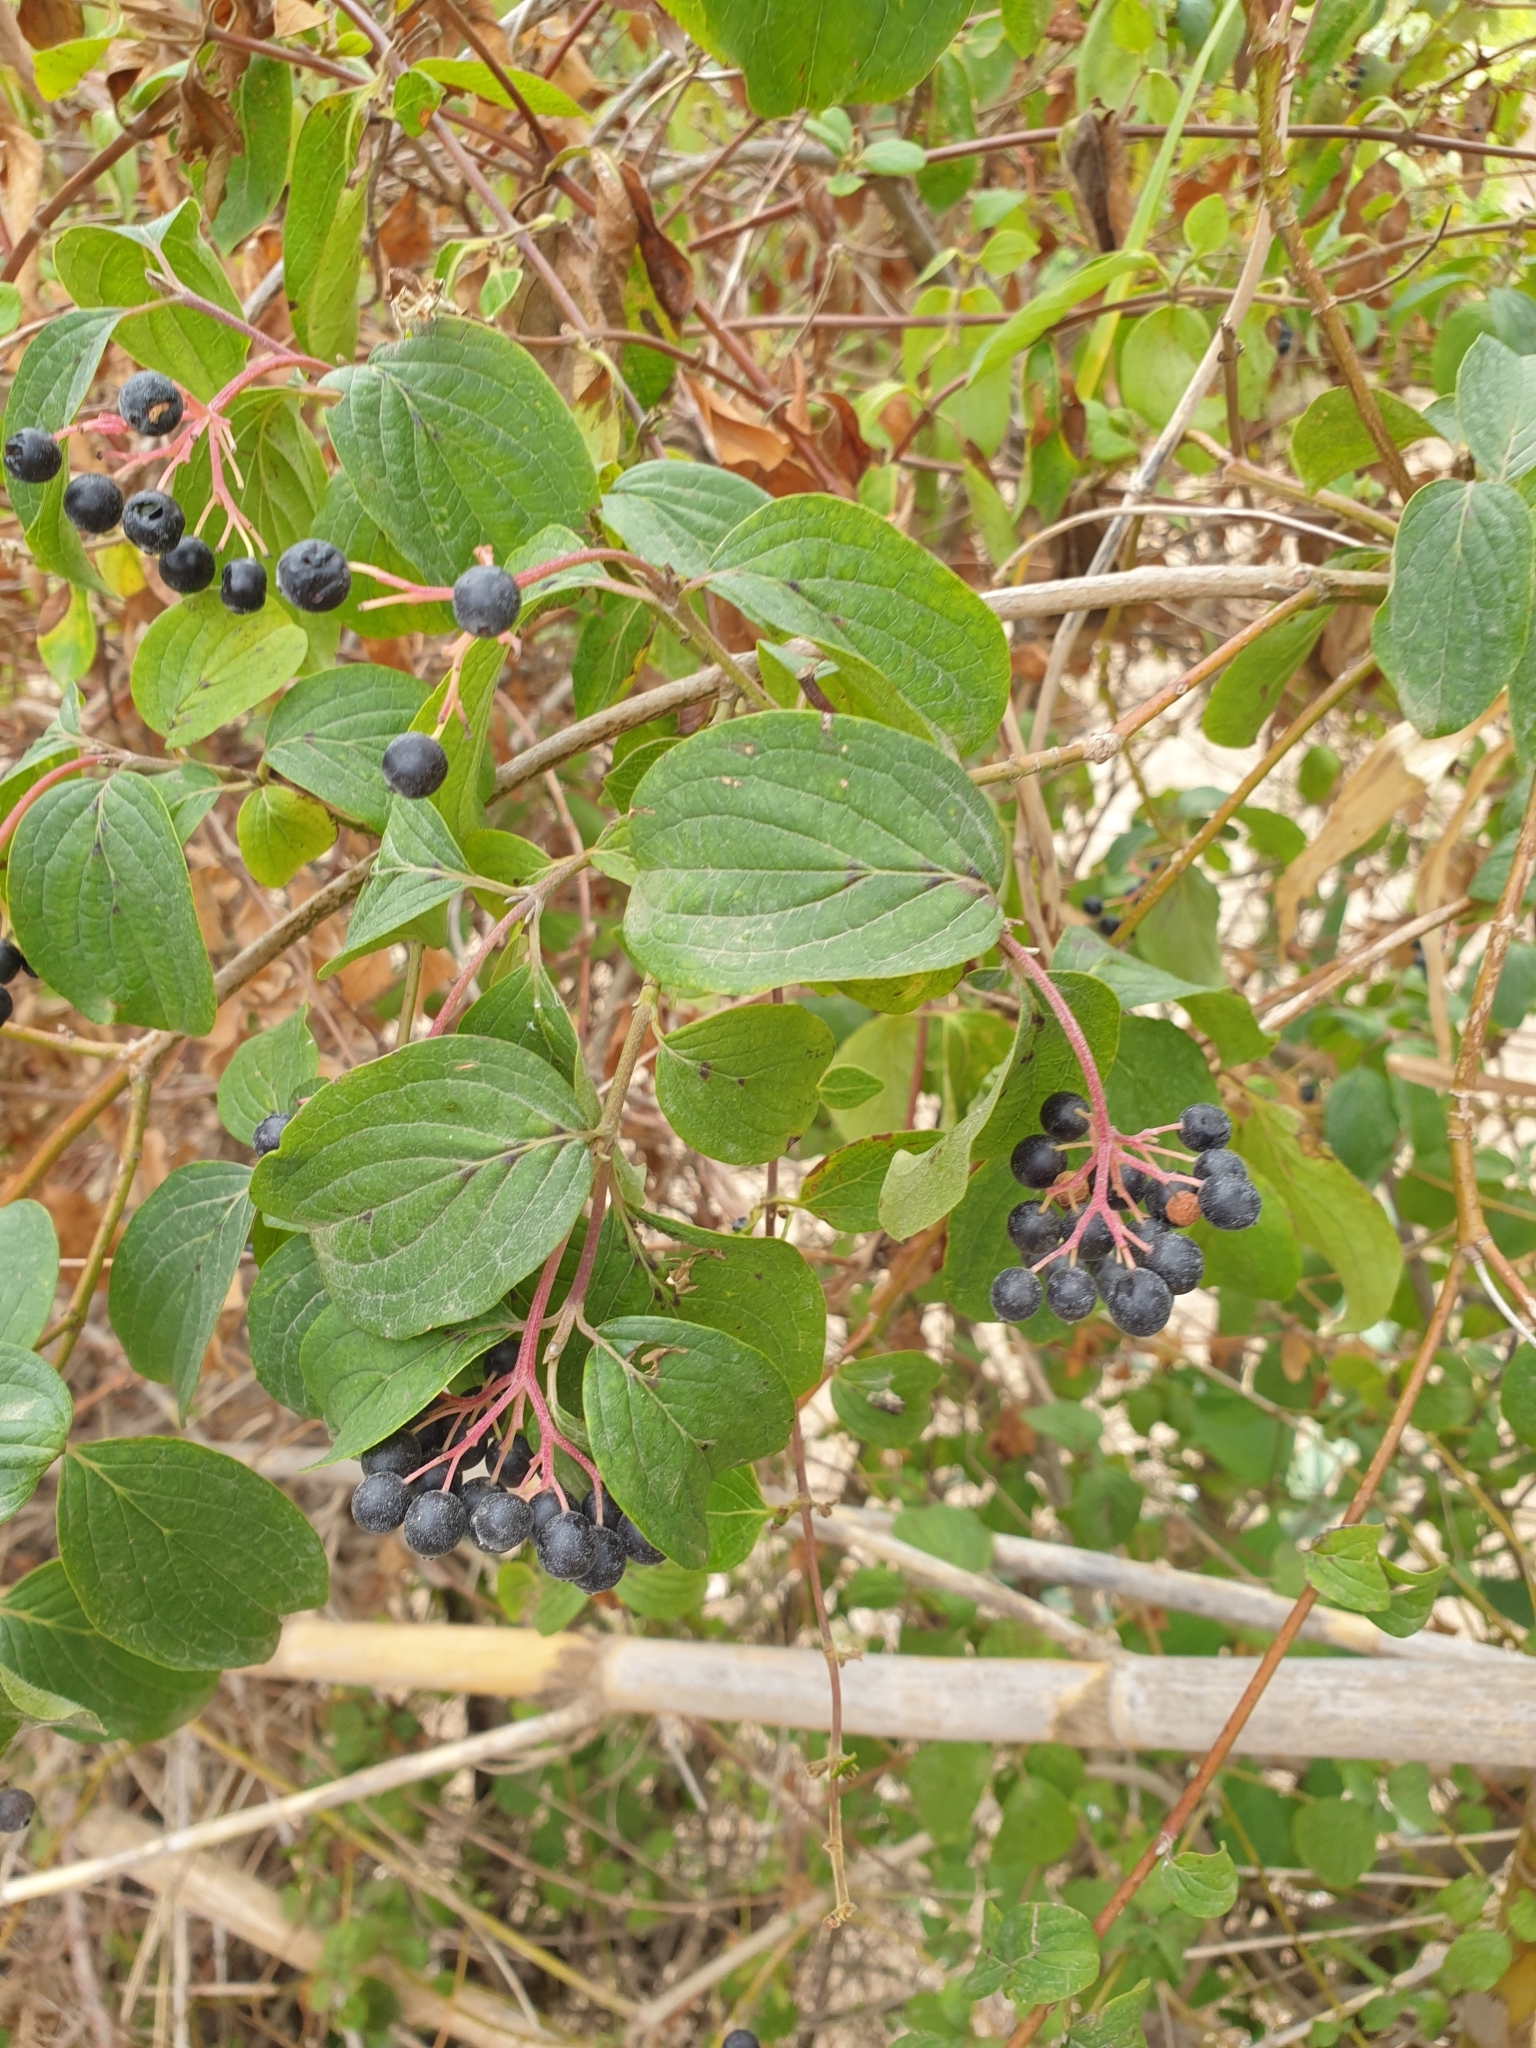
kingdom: Plantae
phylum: Tracheophyta
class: Magnoliopsida
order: Cornales
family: Cornaceae
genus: Cornus
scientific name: Cornus sanguinea
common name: Dogwood
